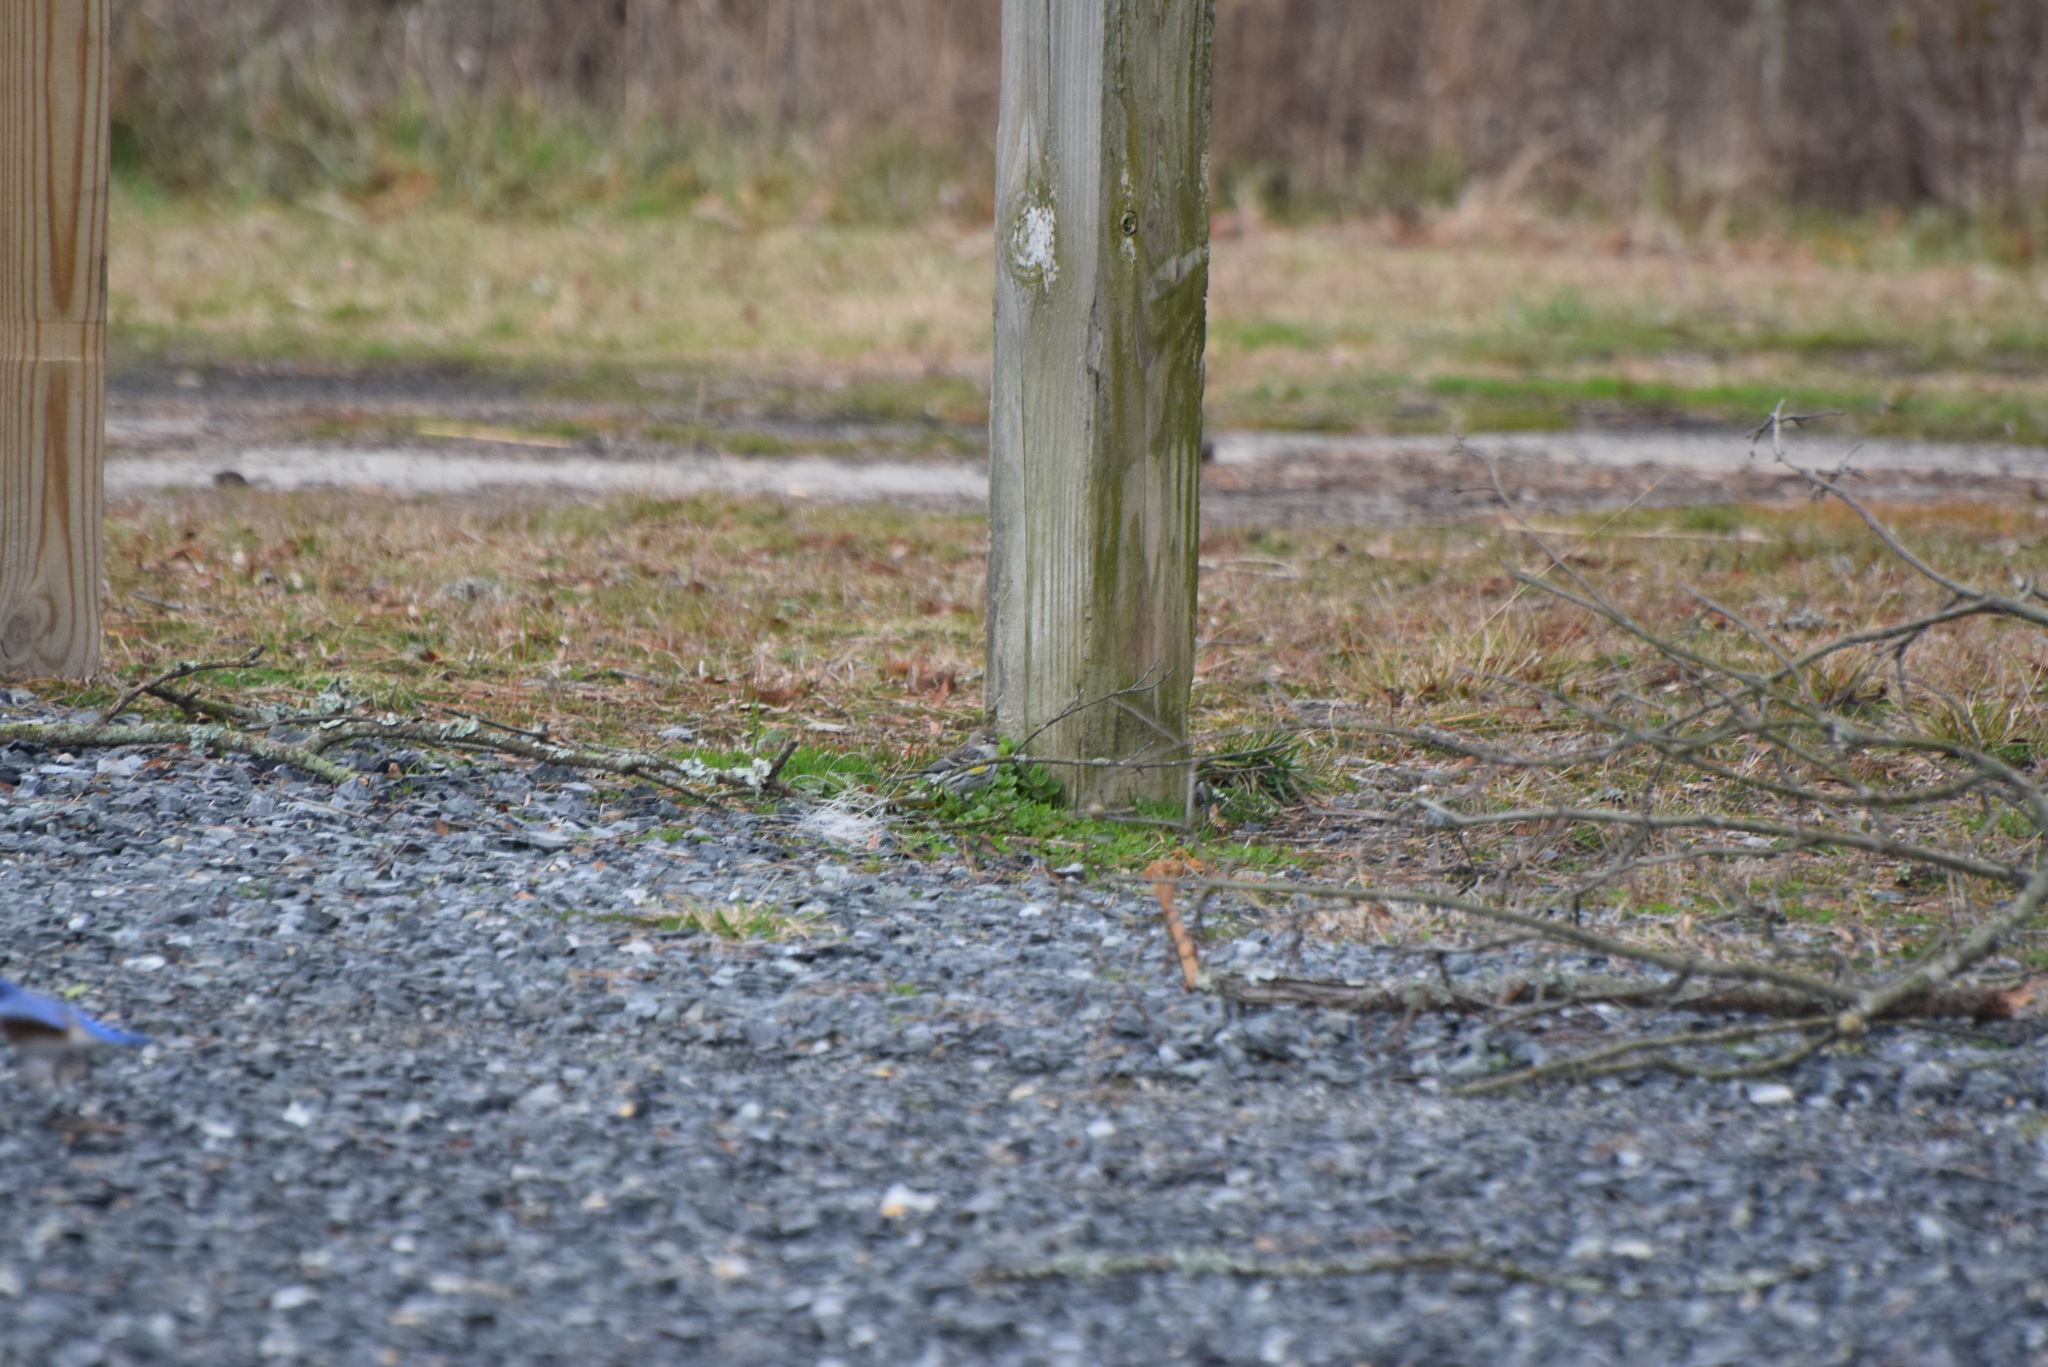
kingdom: Animalia
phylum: Chordata
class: Aves
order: Passeriformes
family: Parulidae
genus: Setophaga
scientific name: Setophaga coronata
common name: Myrtle warbler
